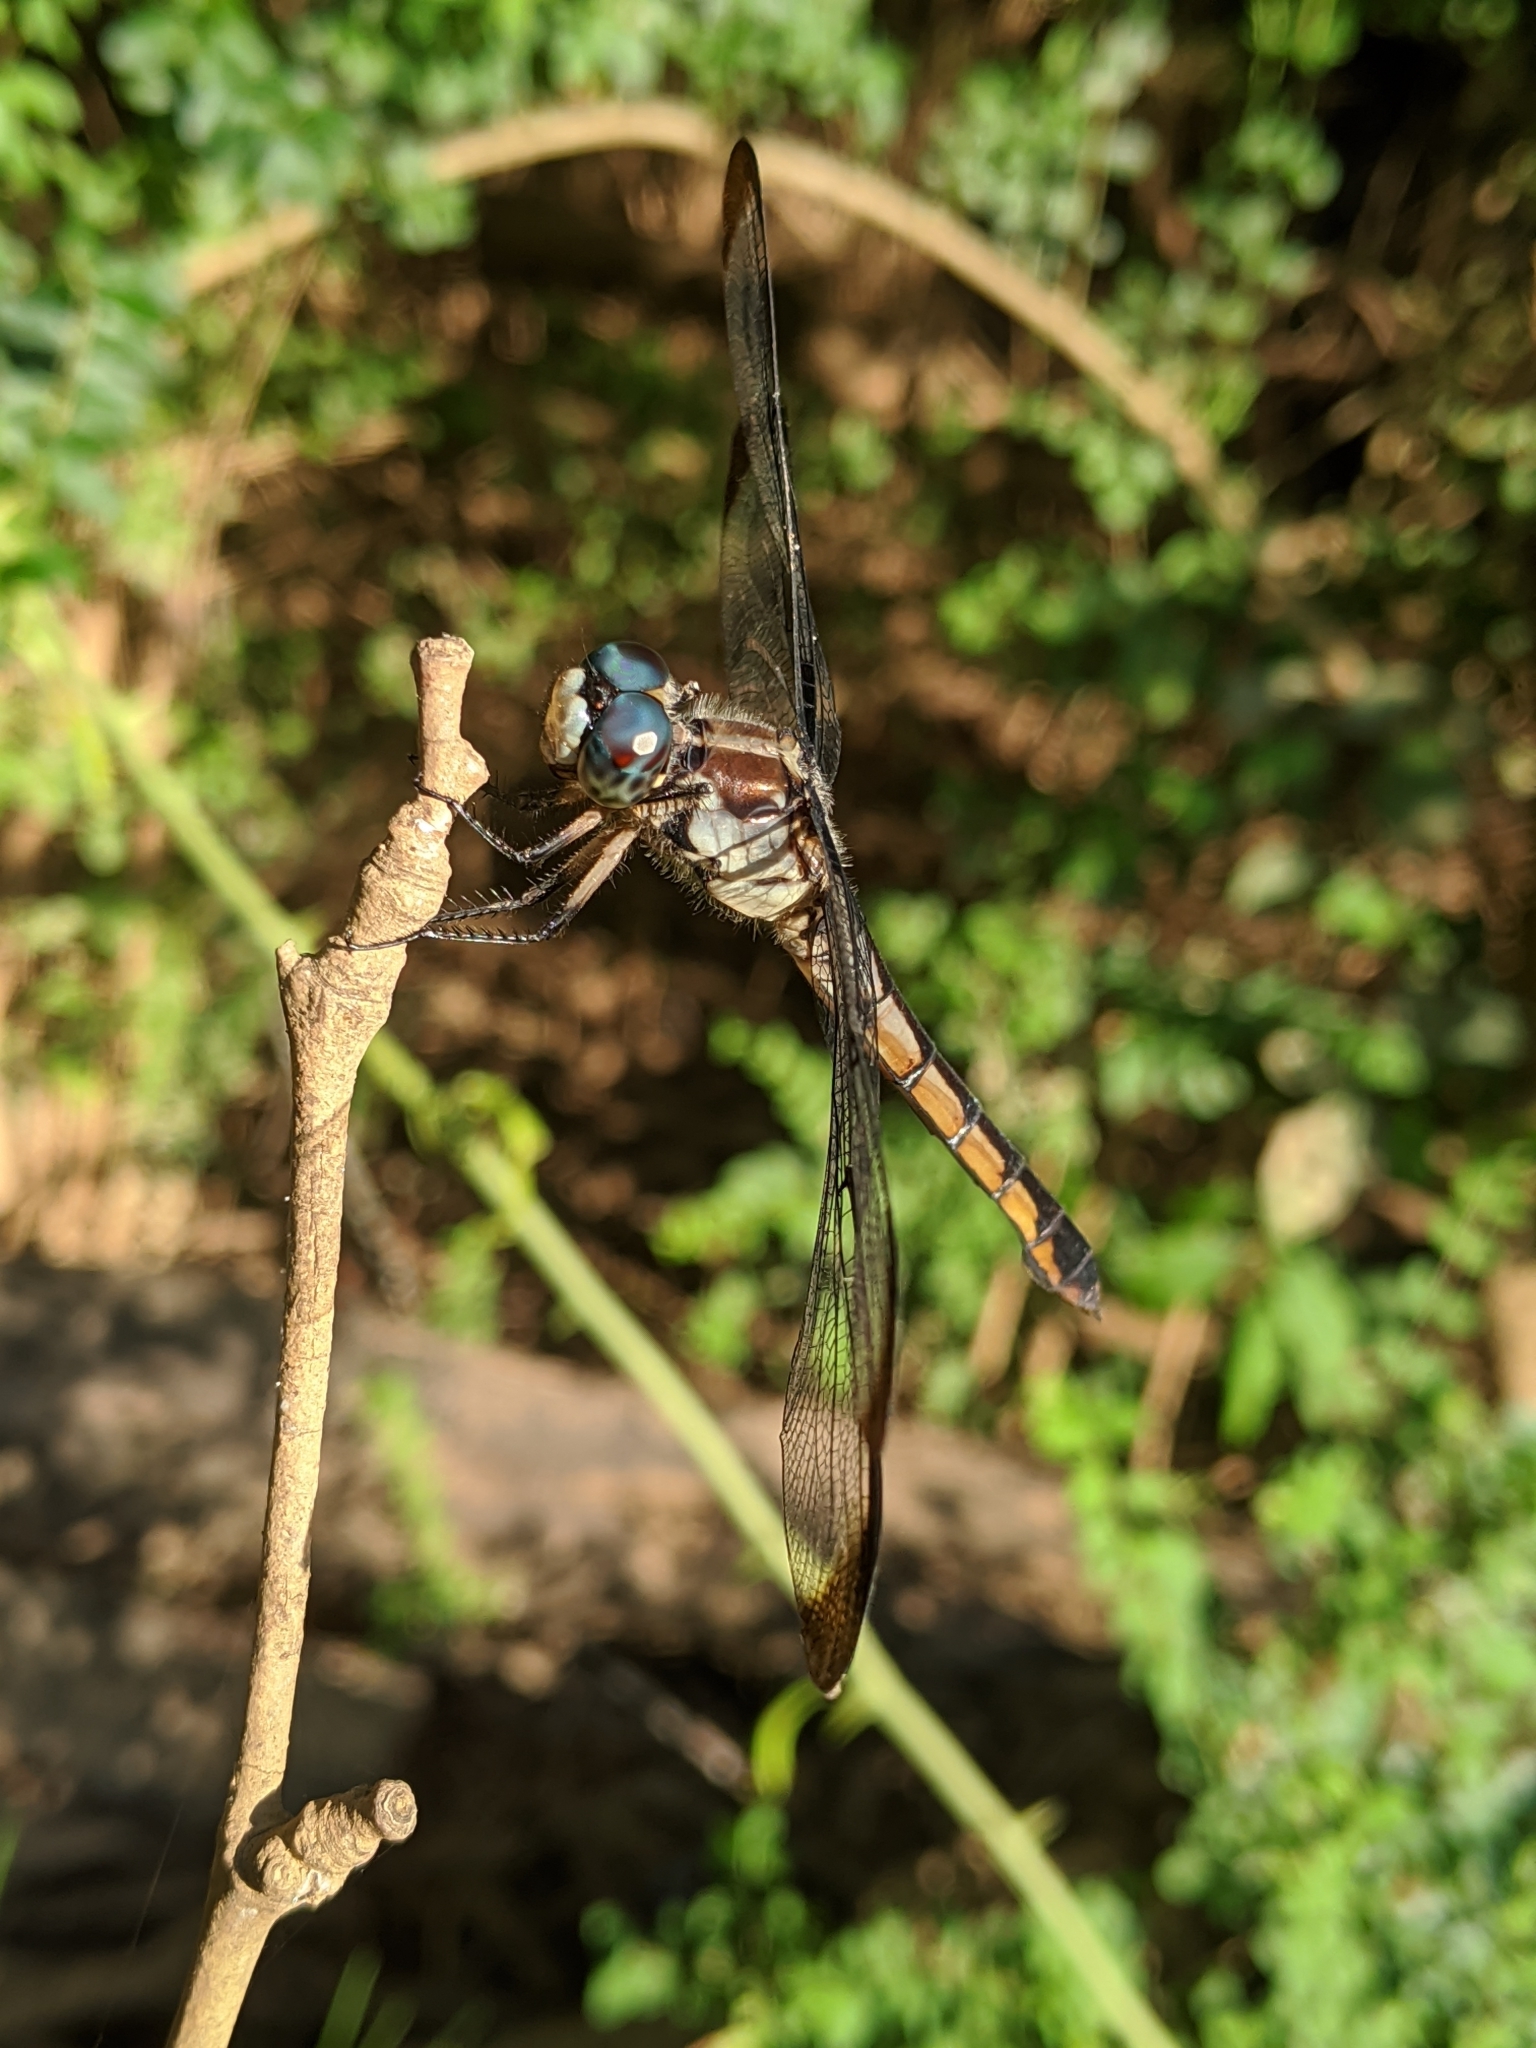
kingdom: Animalia
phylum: Arthropoda
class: Insecta
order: Odonata
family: Libellulidae
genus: Libellula
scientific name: Libellula vibrans
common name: Great blue skimmer
